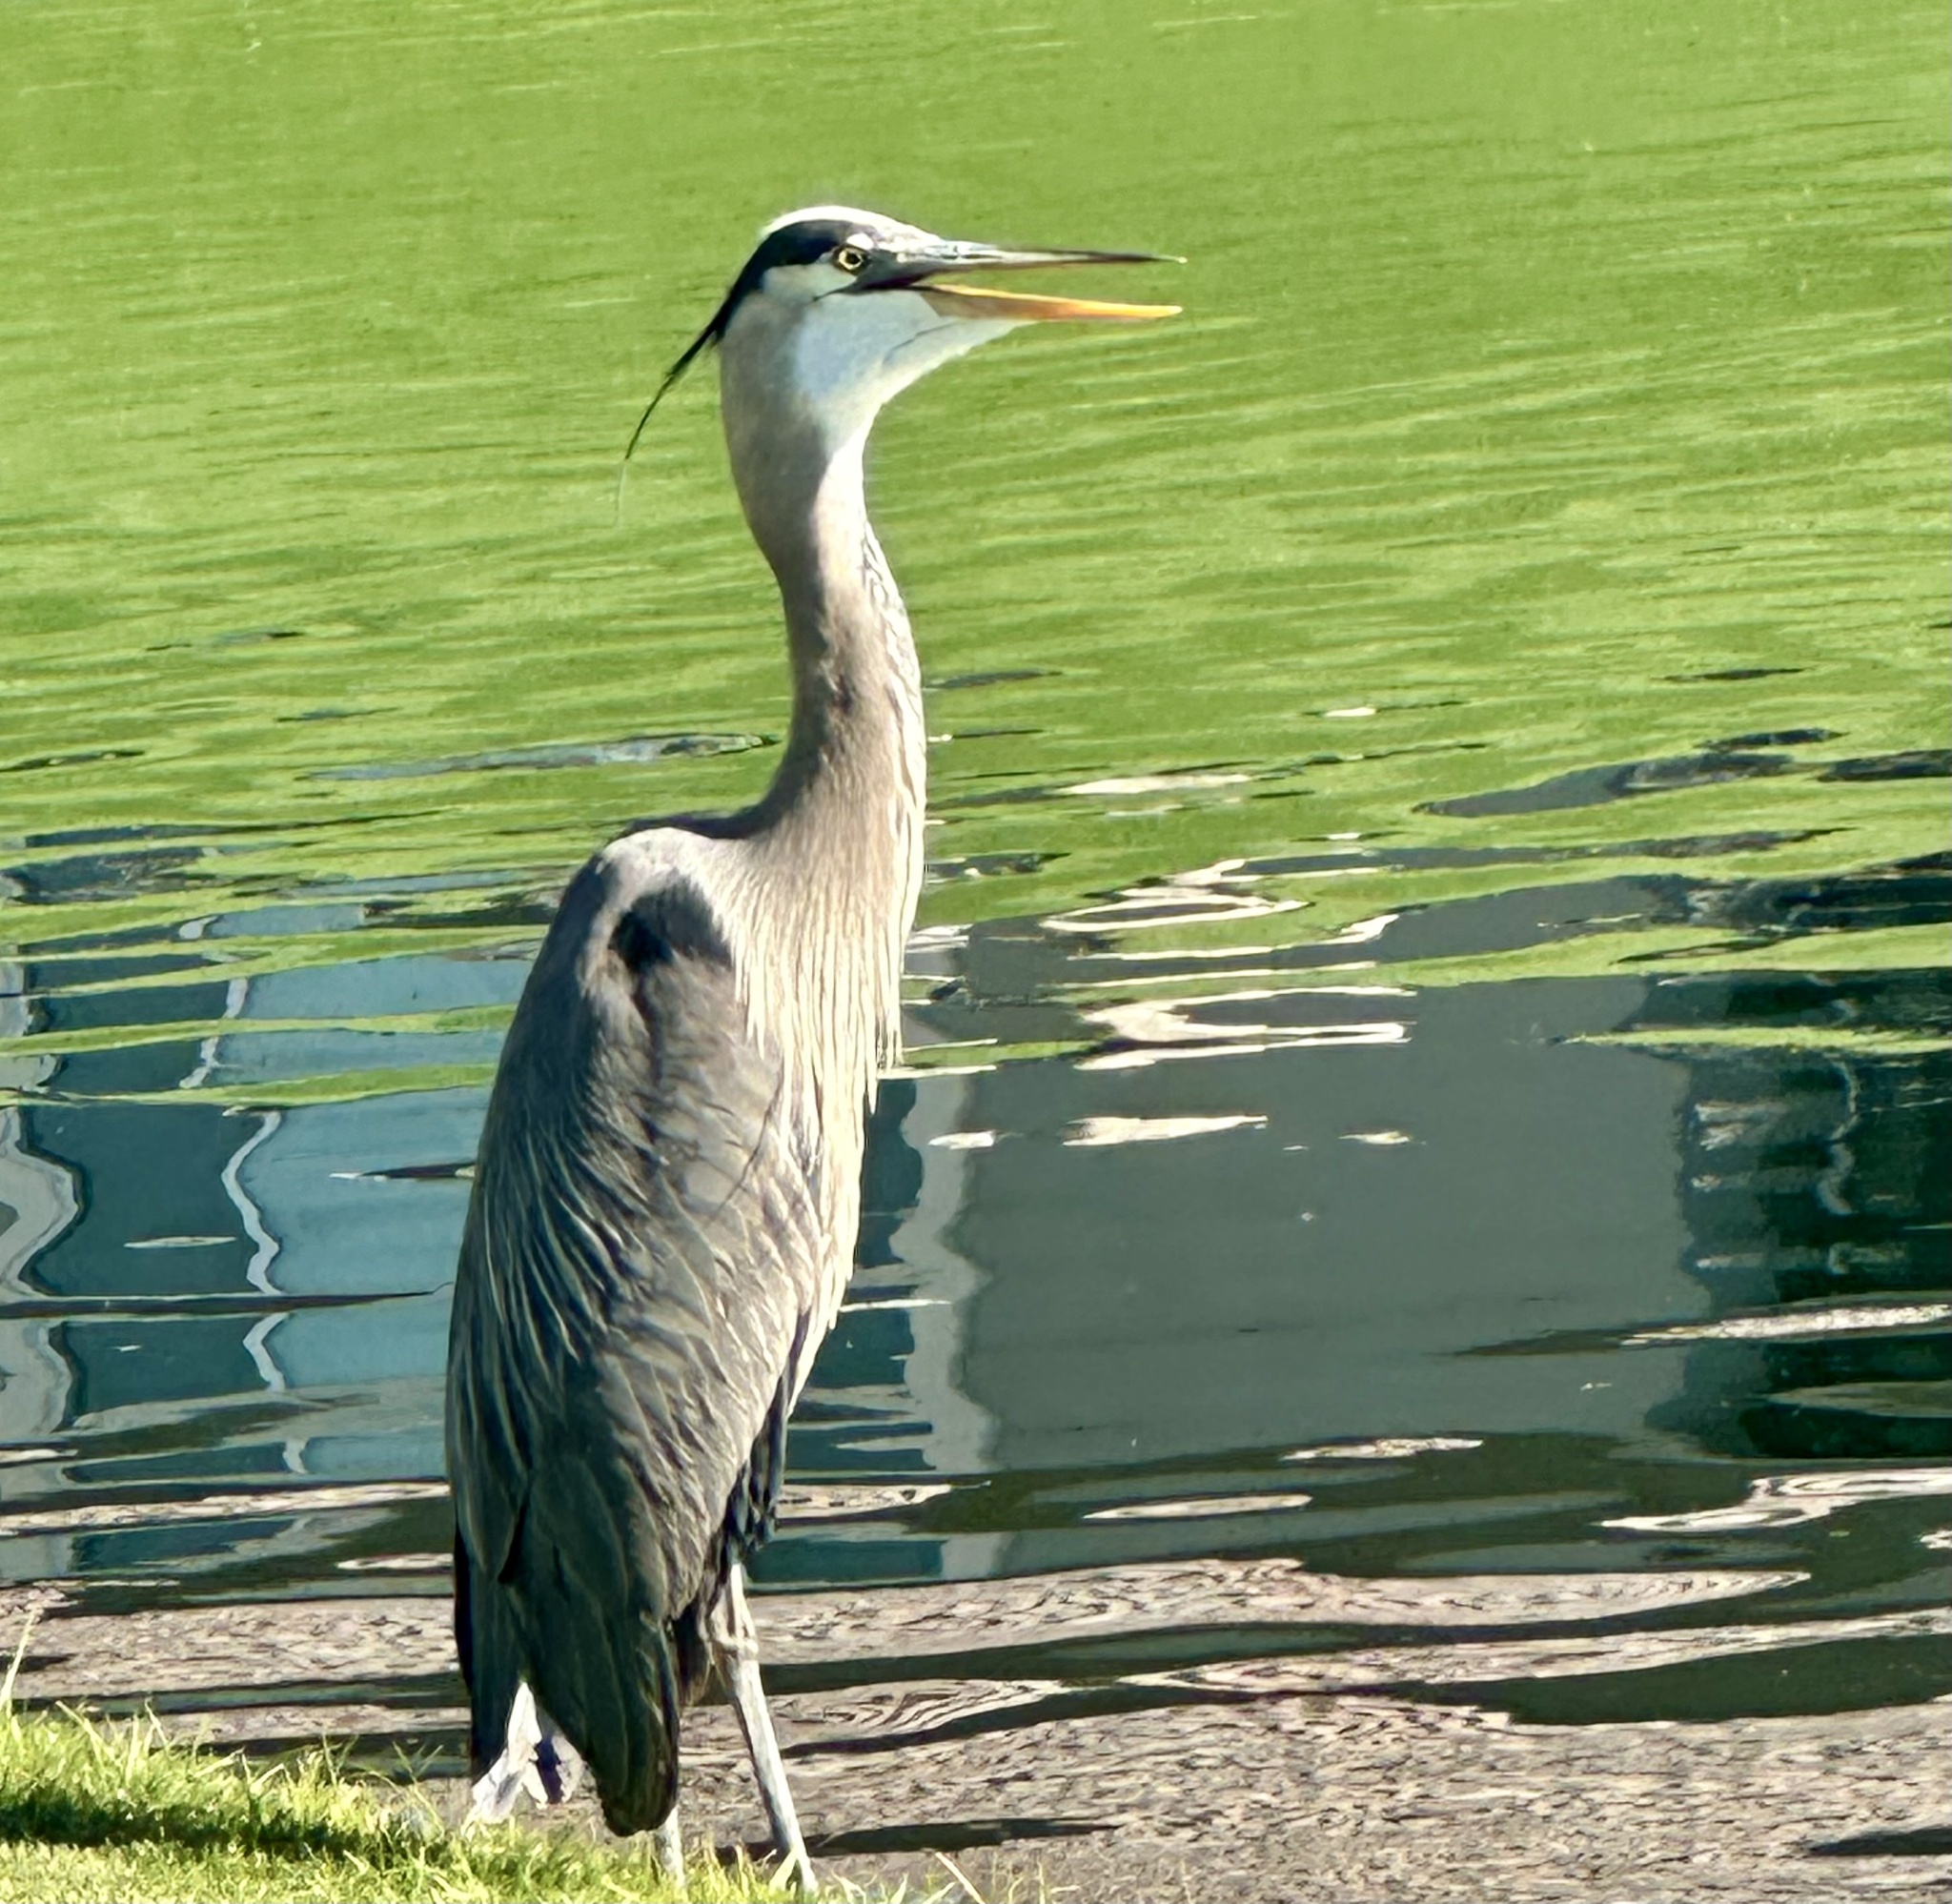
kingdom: Animalia
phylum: Chordata
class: Aves
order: Pelecaniformes
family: Ardeidae
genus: Ardea
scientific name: Ardea herodias
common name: Great blue heron
